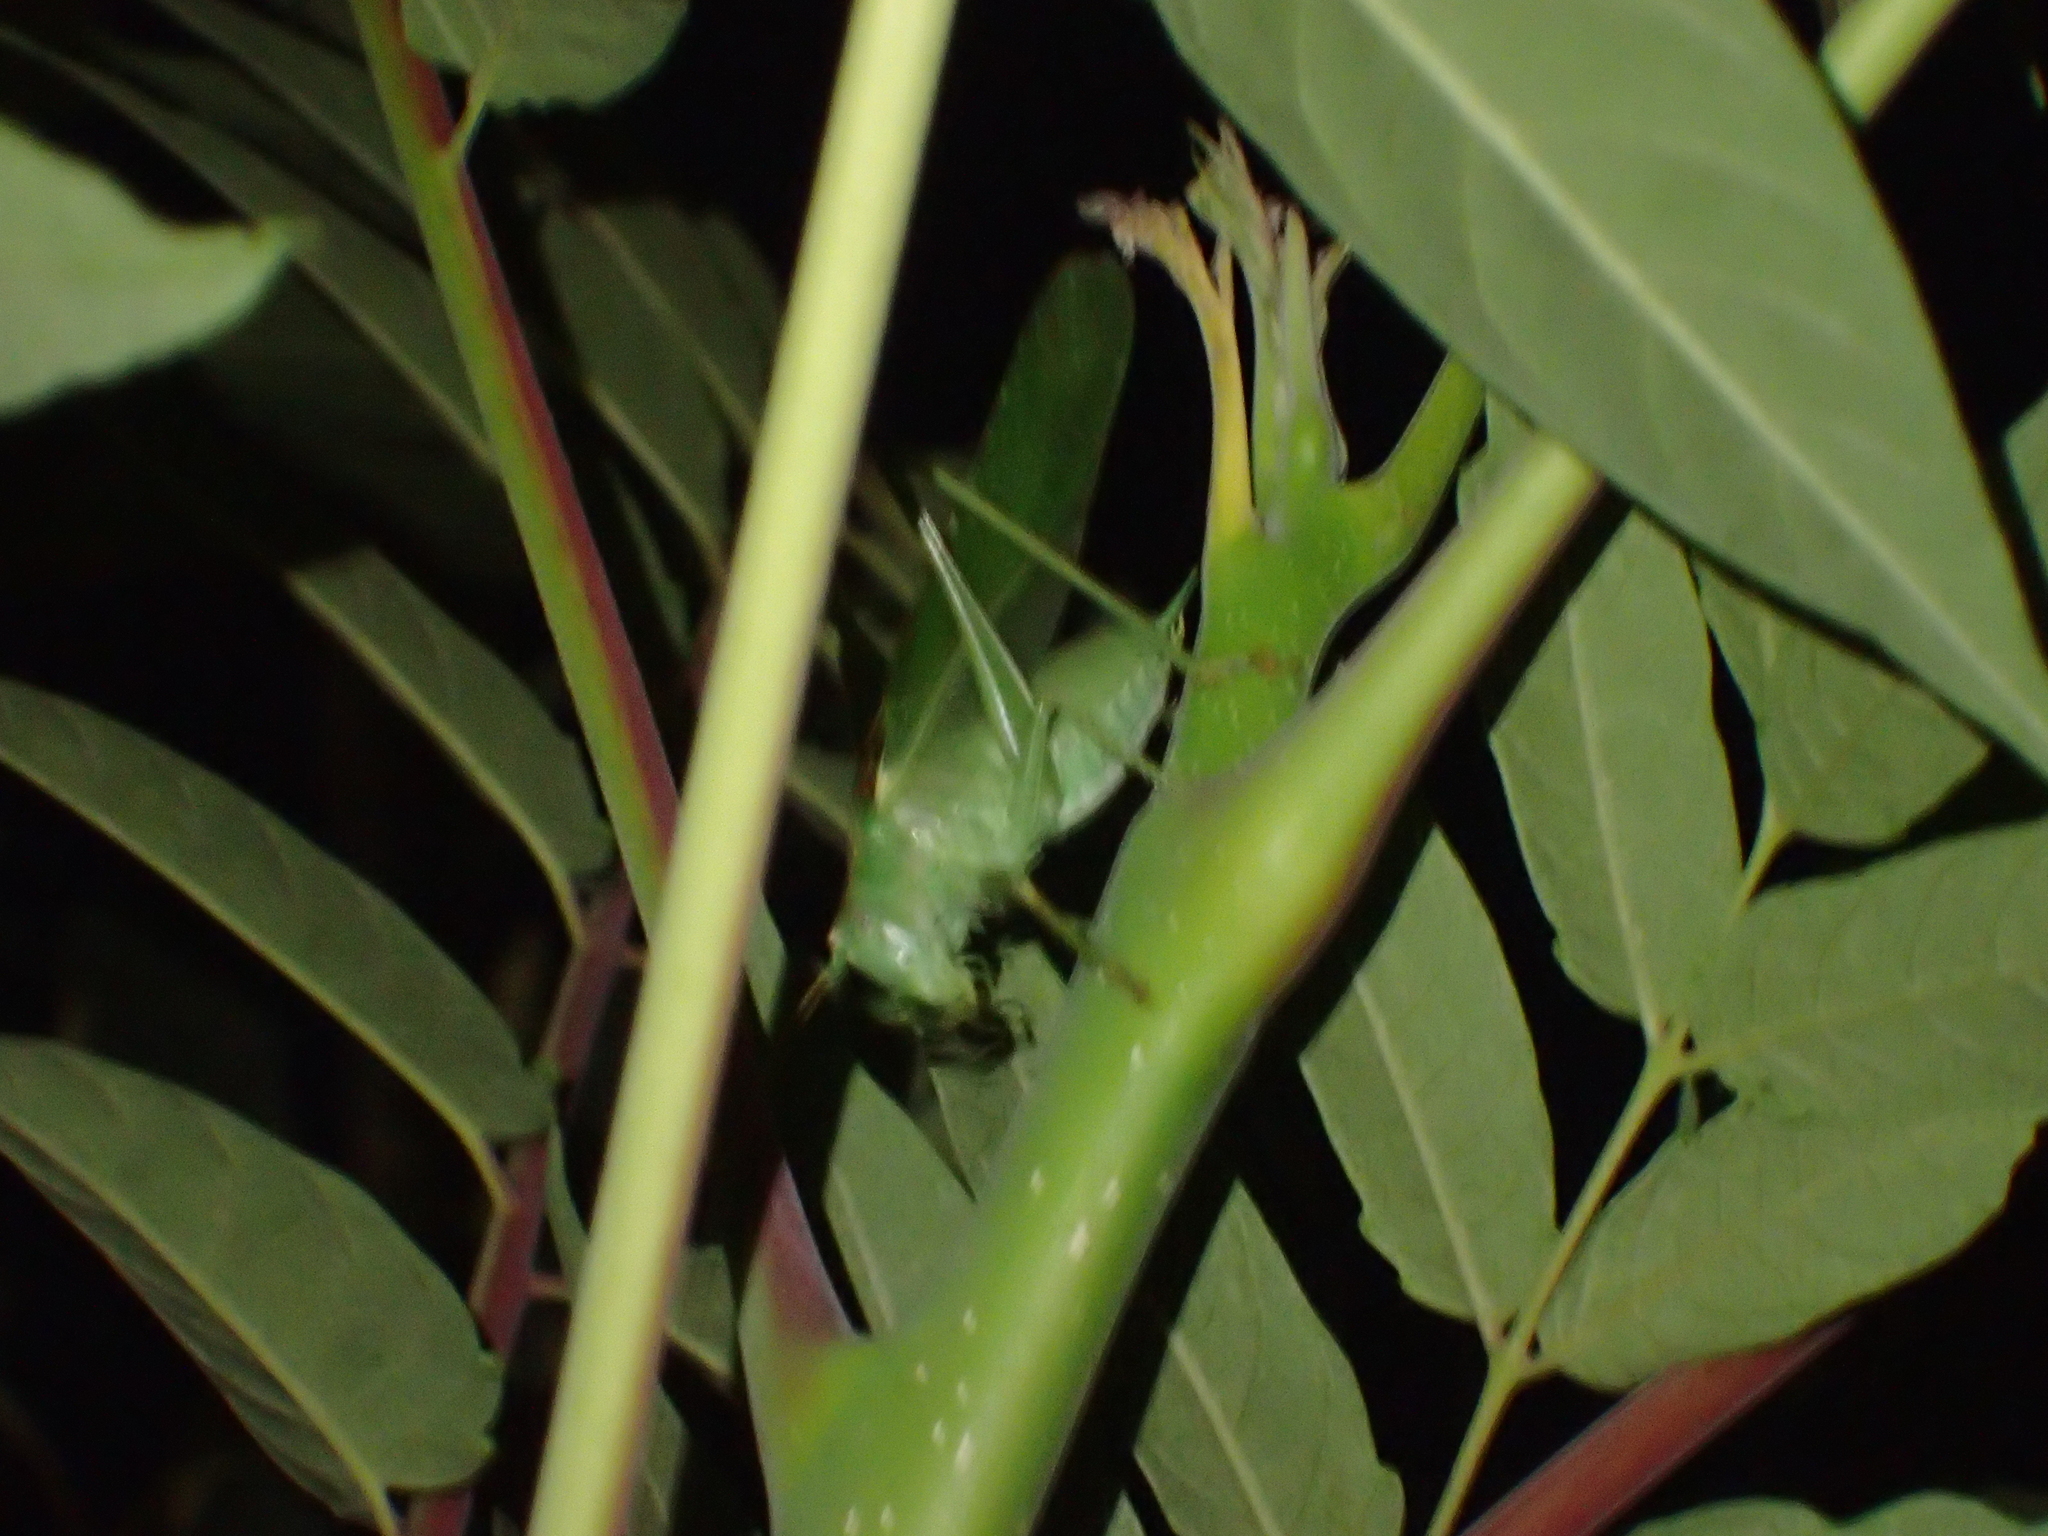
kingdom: Animalia
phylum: Arthropoda
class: Insecta
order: Orthoptera
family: Tettigoniidae
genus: Tettigonia
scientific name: Tettigonia viridissima
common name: Great green bush-cricket
